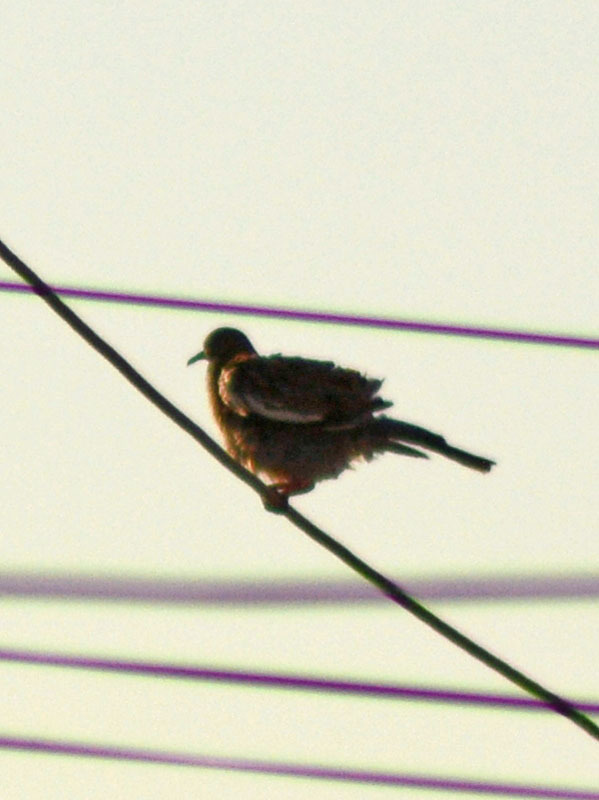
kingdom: Animalia
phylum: Chordata
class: Aves
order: Columbiformes
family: Columbidae
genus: Zenaida
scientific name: Zenaida asiatica
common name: White-winged dove
